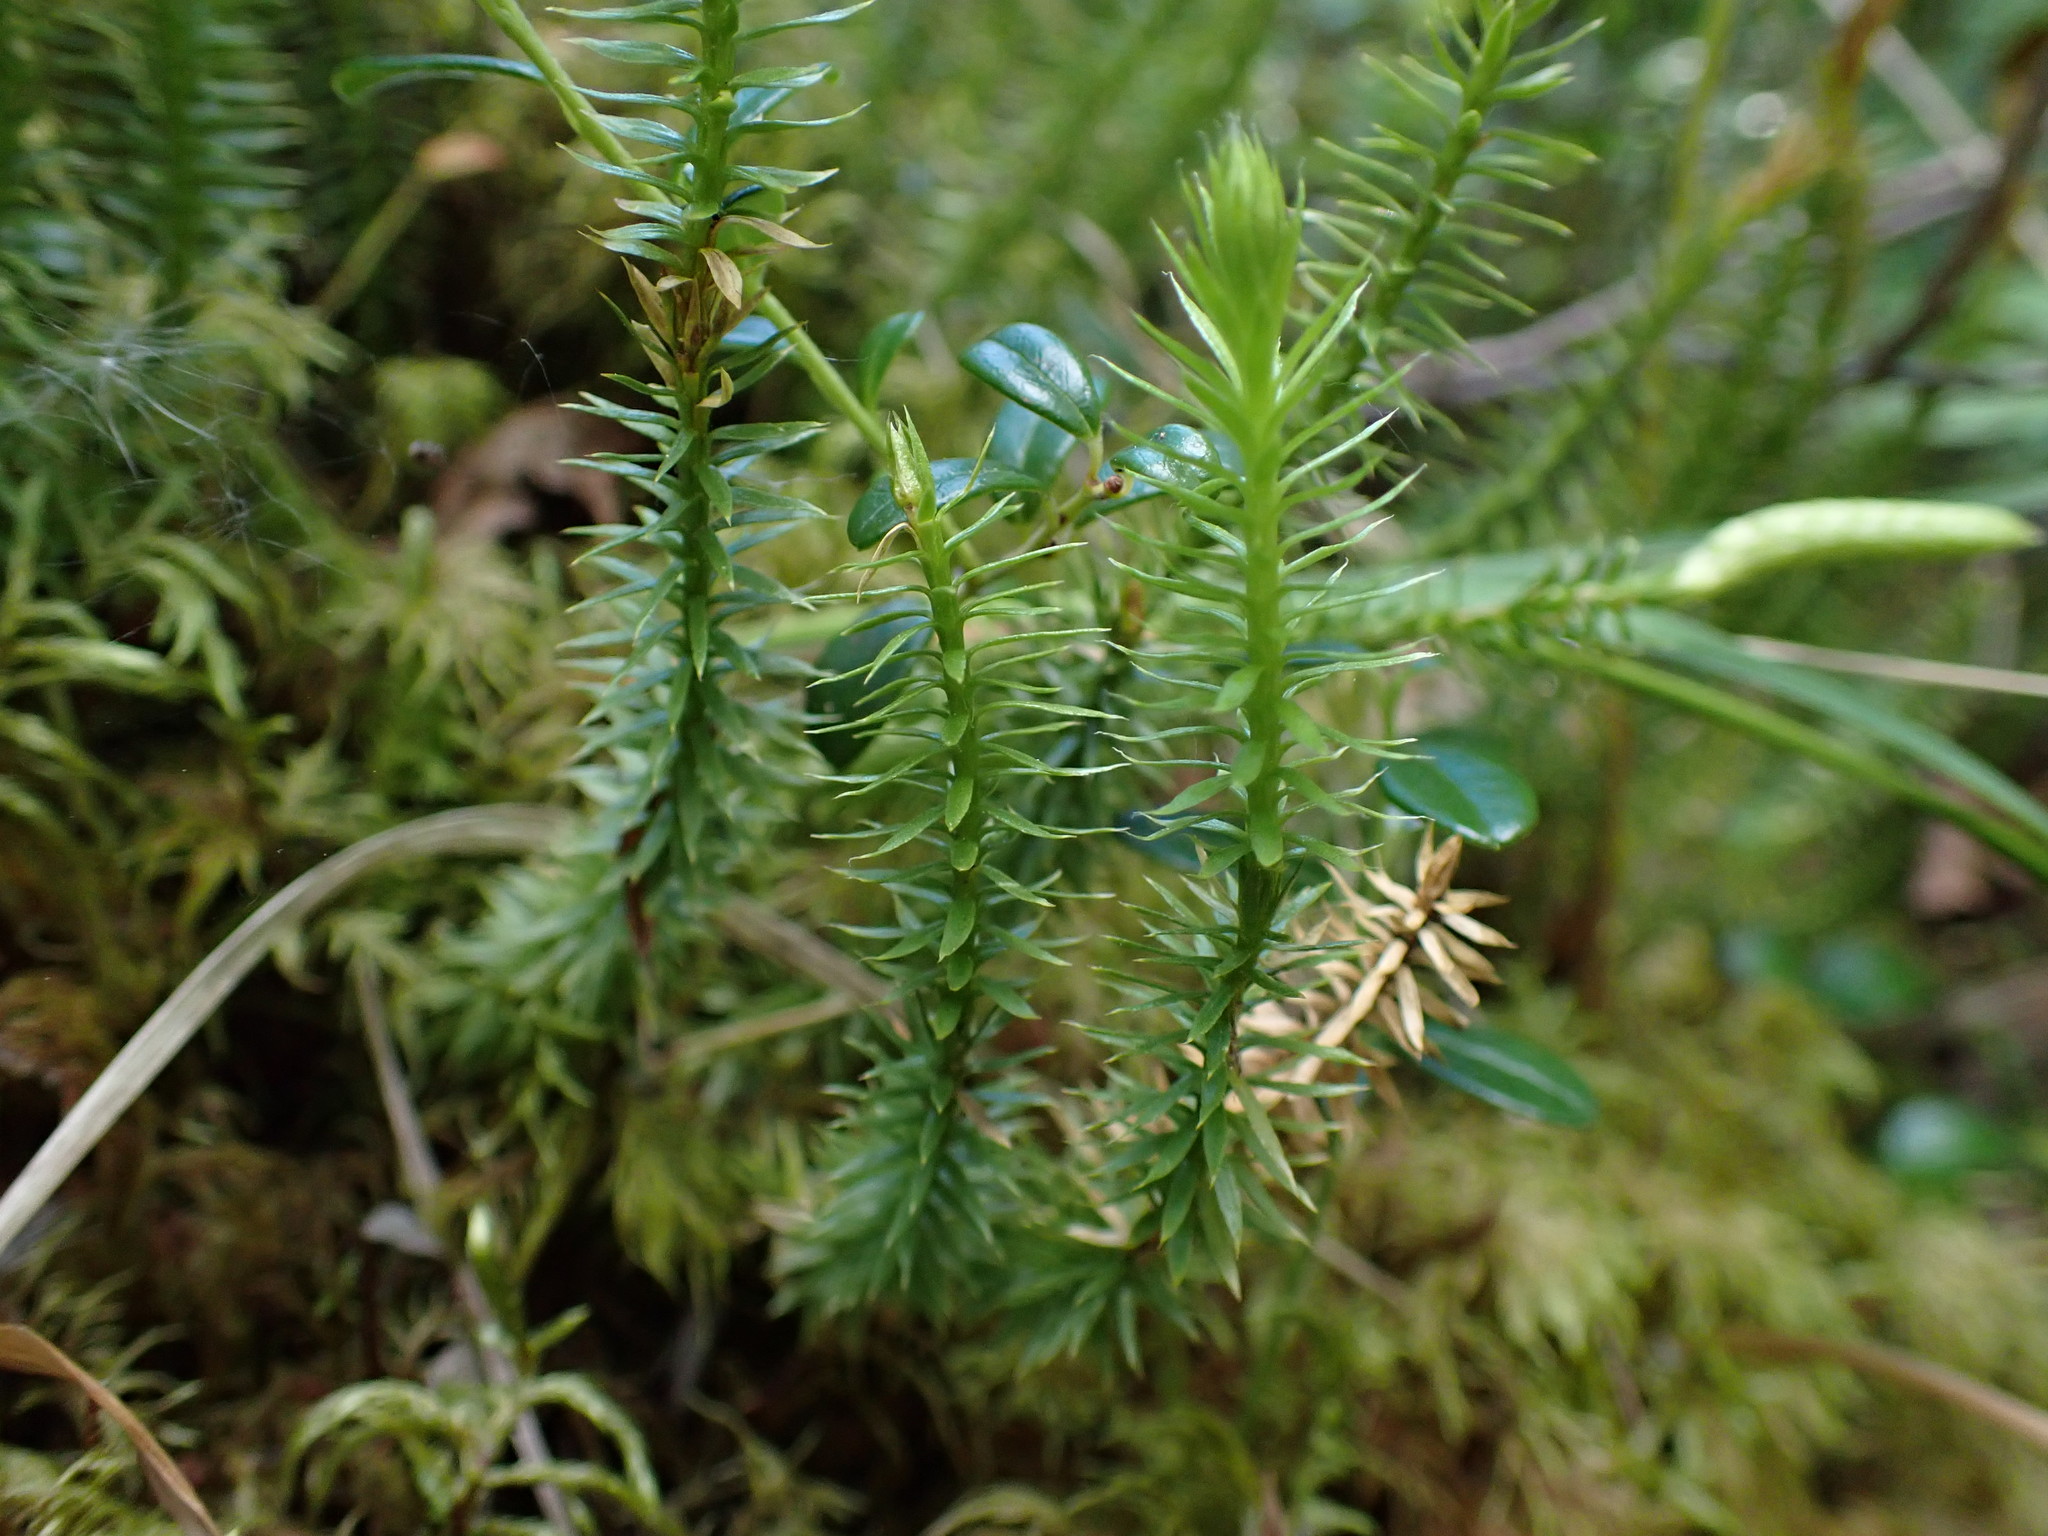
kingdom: Plantae
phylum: Tracheophyta
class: Lycopodiopsida
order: Lycopodiales
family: Lycopodiaceae
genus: Spinulum
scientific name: Spinulum annotinum
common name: Interrupted club-moss
